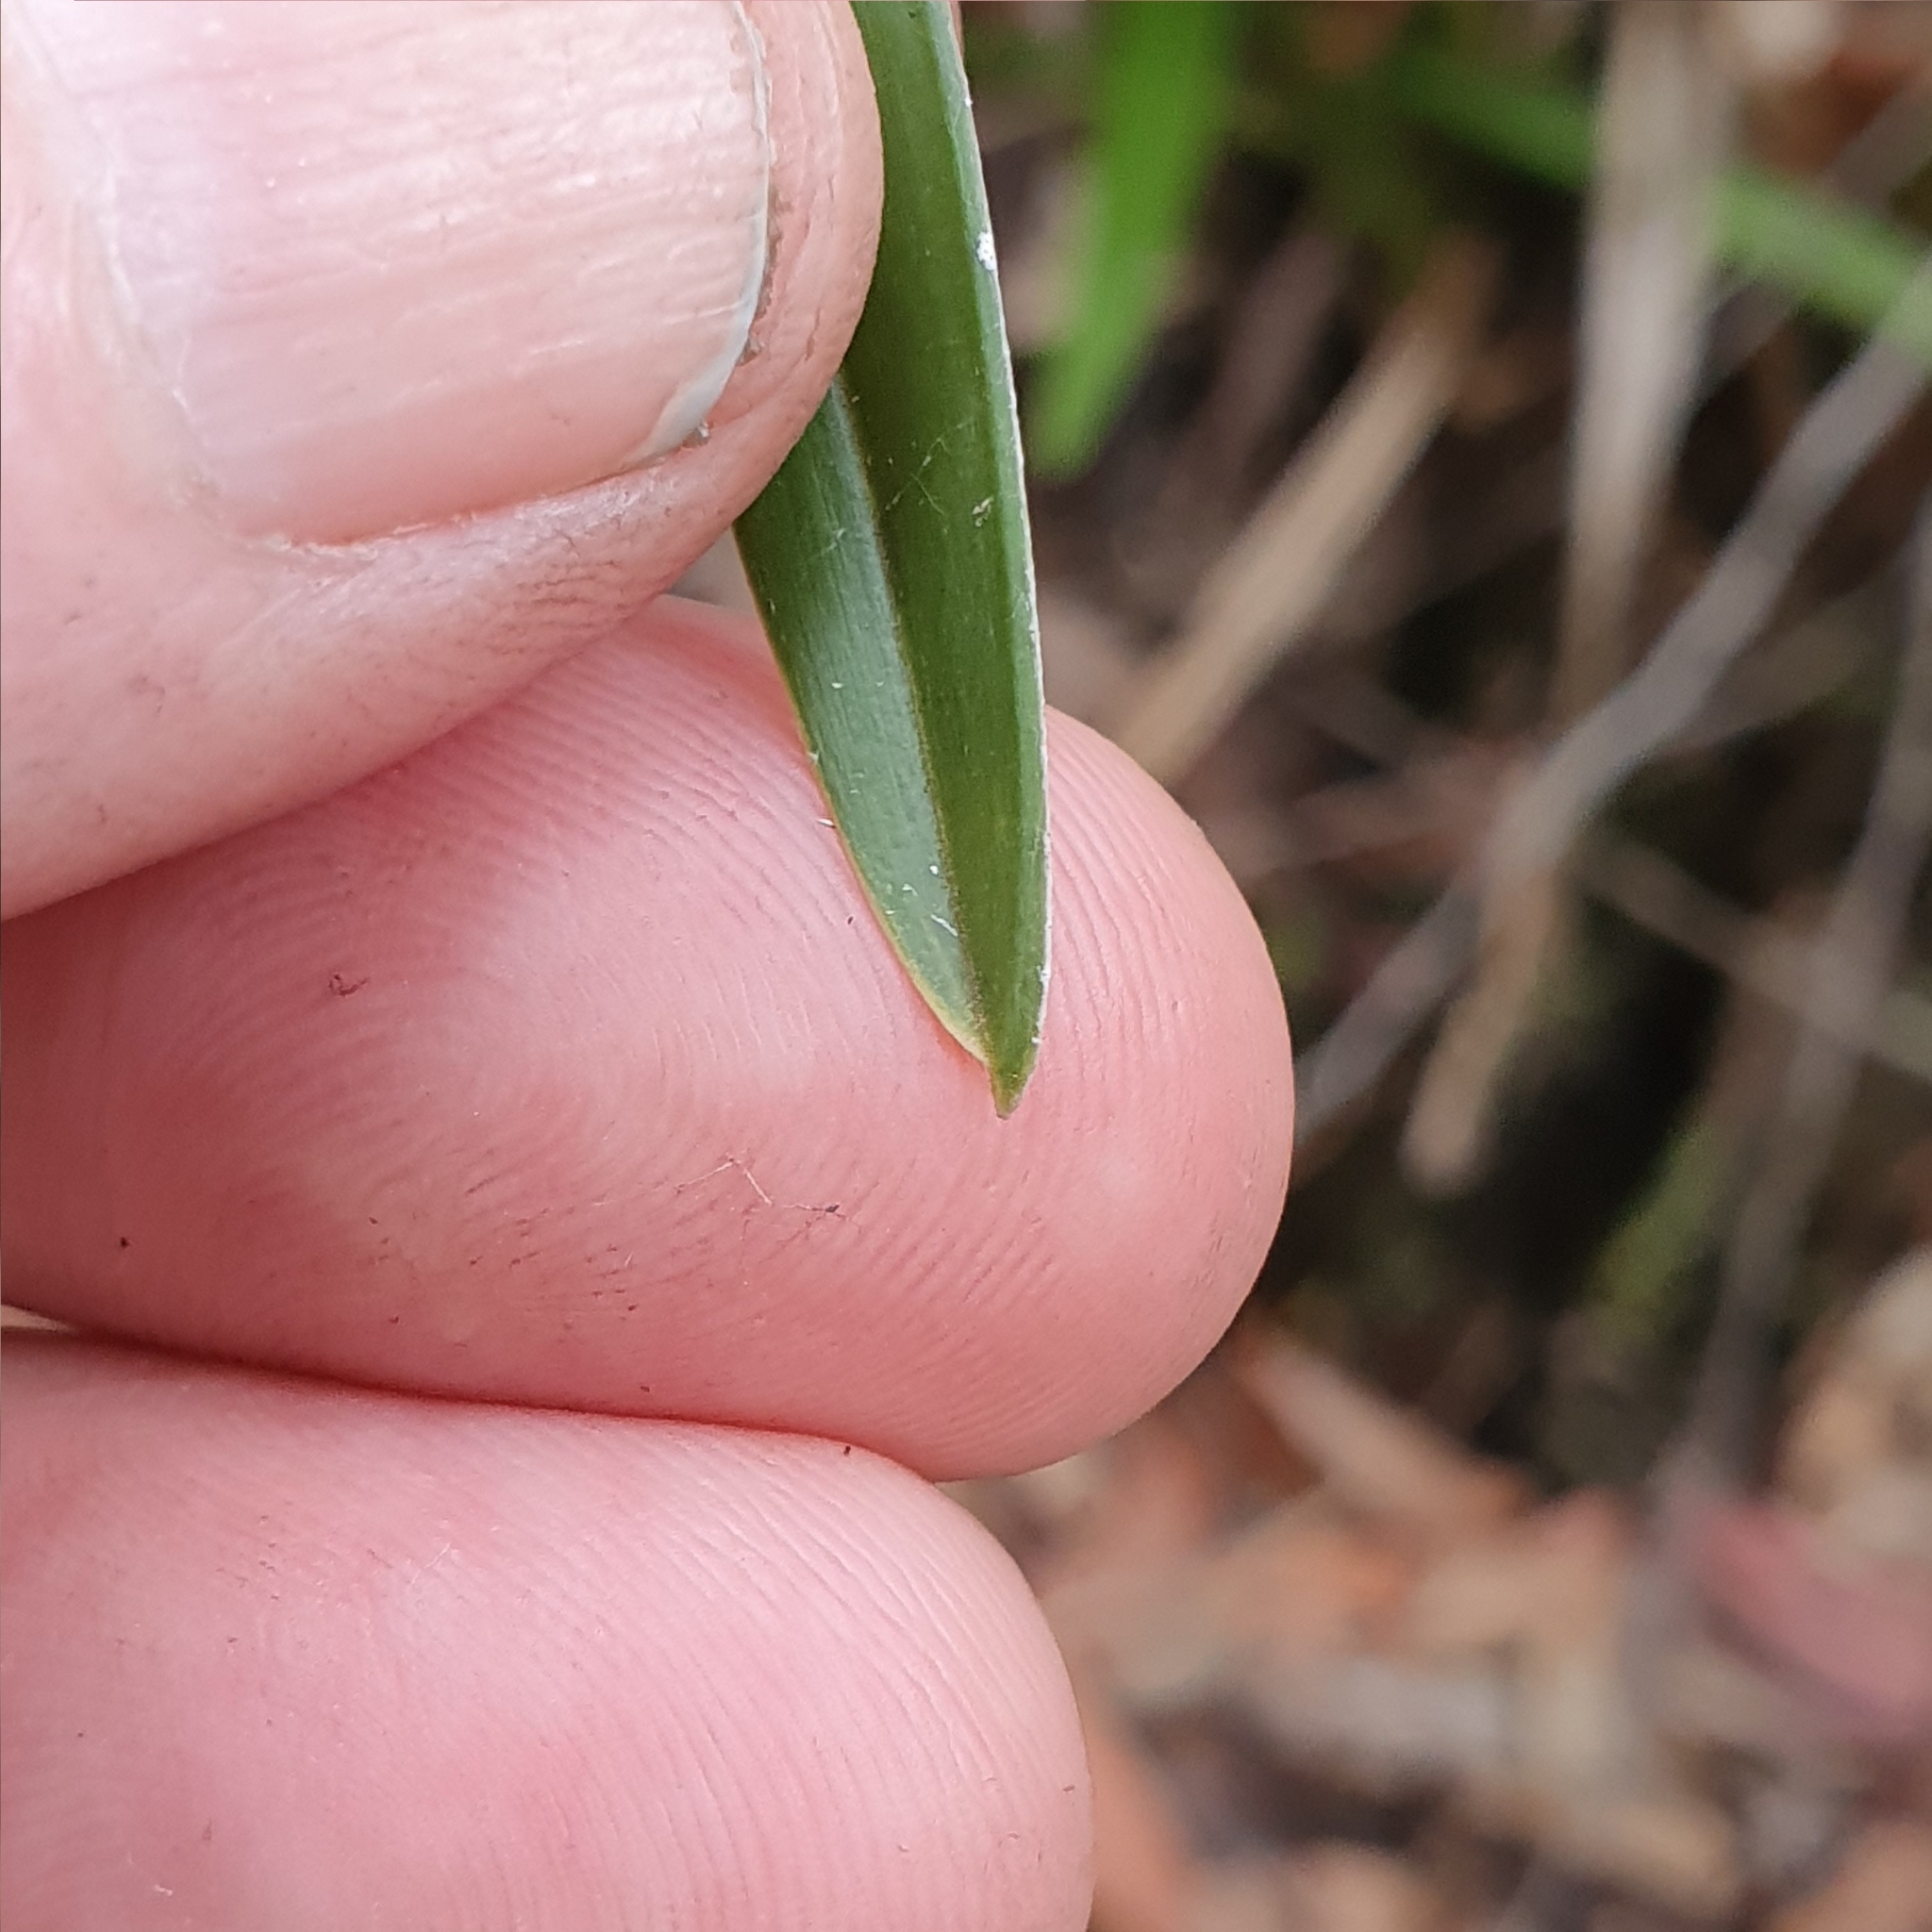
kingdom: Plantae
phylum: Tracheophyta
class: Liliopsida
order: Asparagales
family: Orchidaceae
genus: Cymbidium
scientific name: Cymbidium suave
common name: Snake orchid
